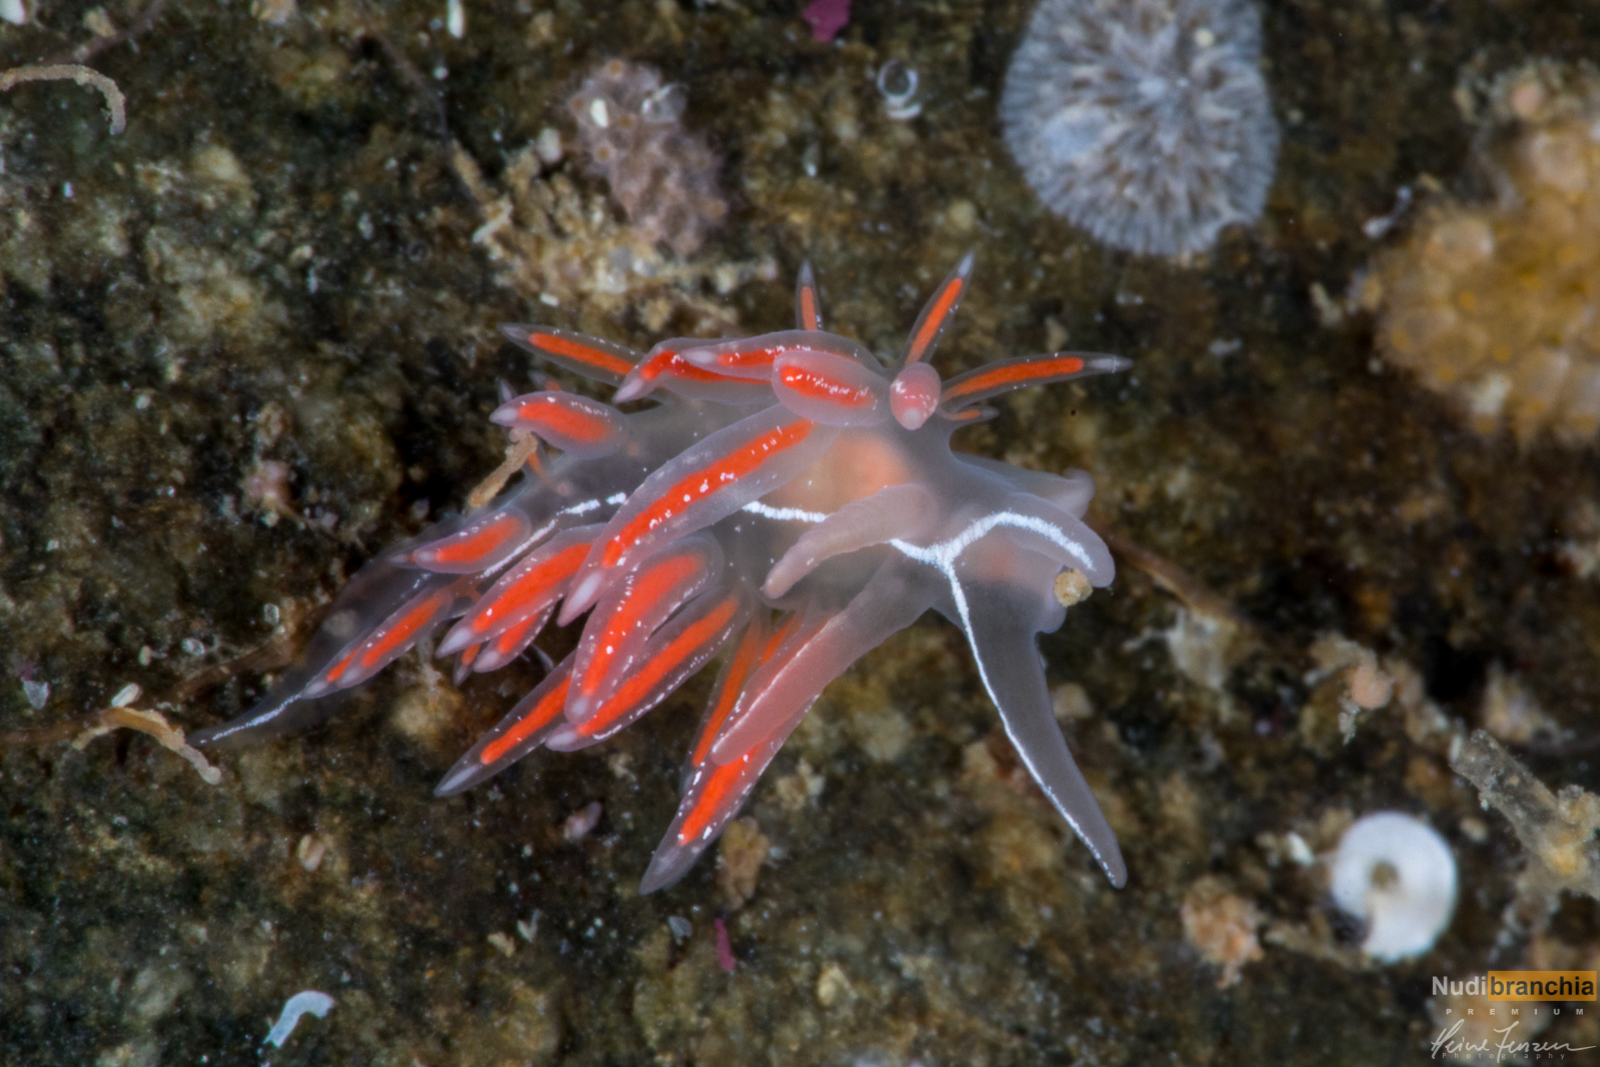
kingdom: Animalia
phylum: Mollusca
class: Gastropoda
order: Nudibranchia
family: Coryphellidae
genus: Coryphella
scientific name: Coryphella chriskaugei
